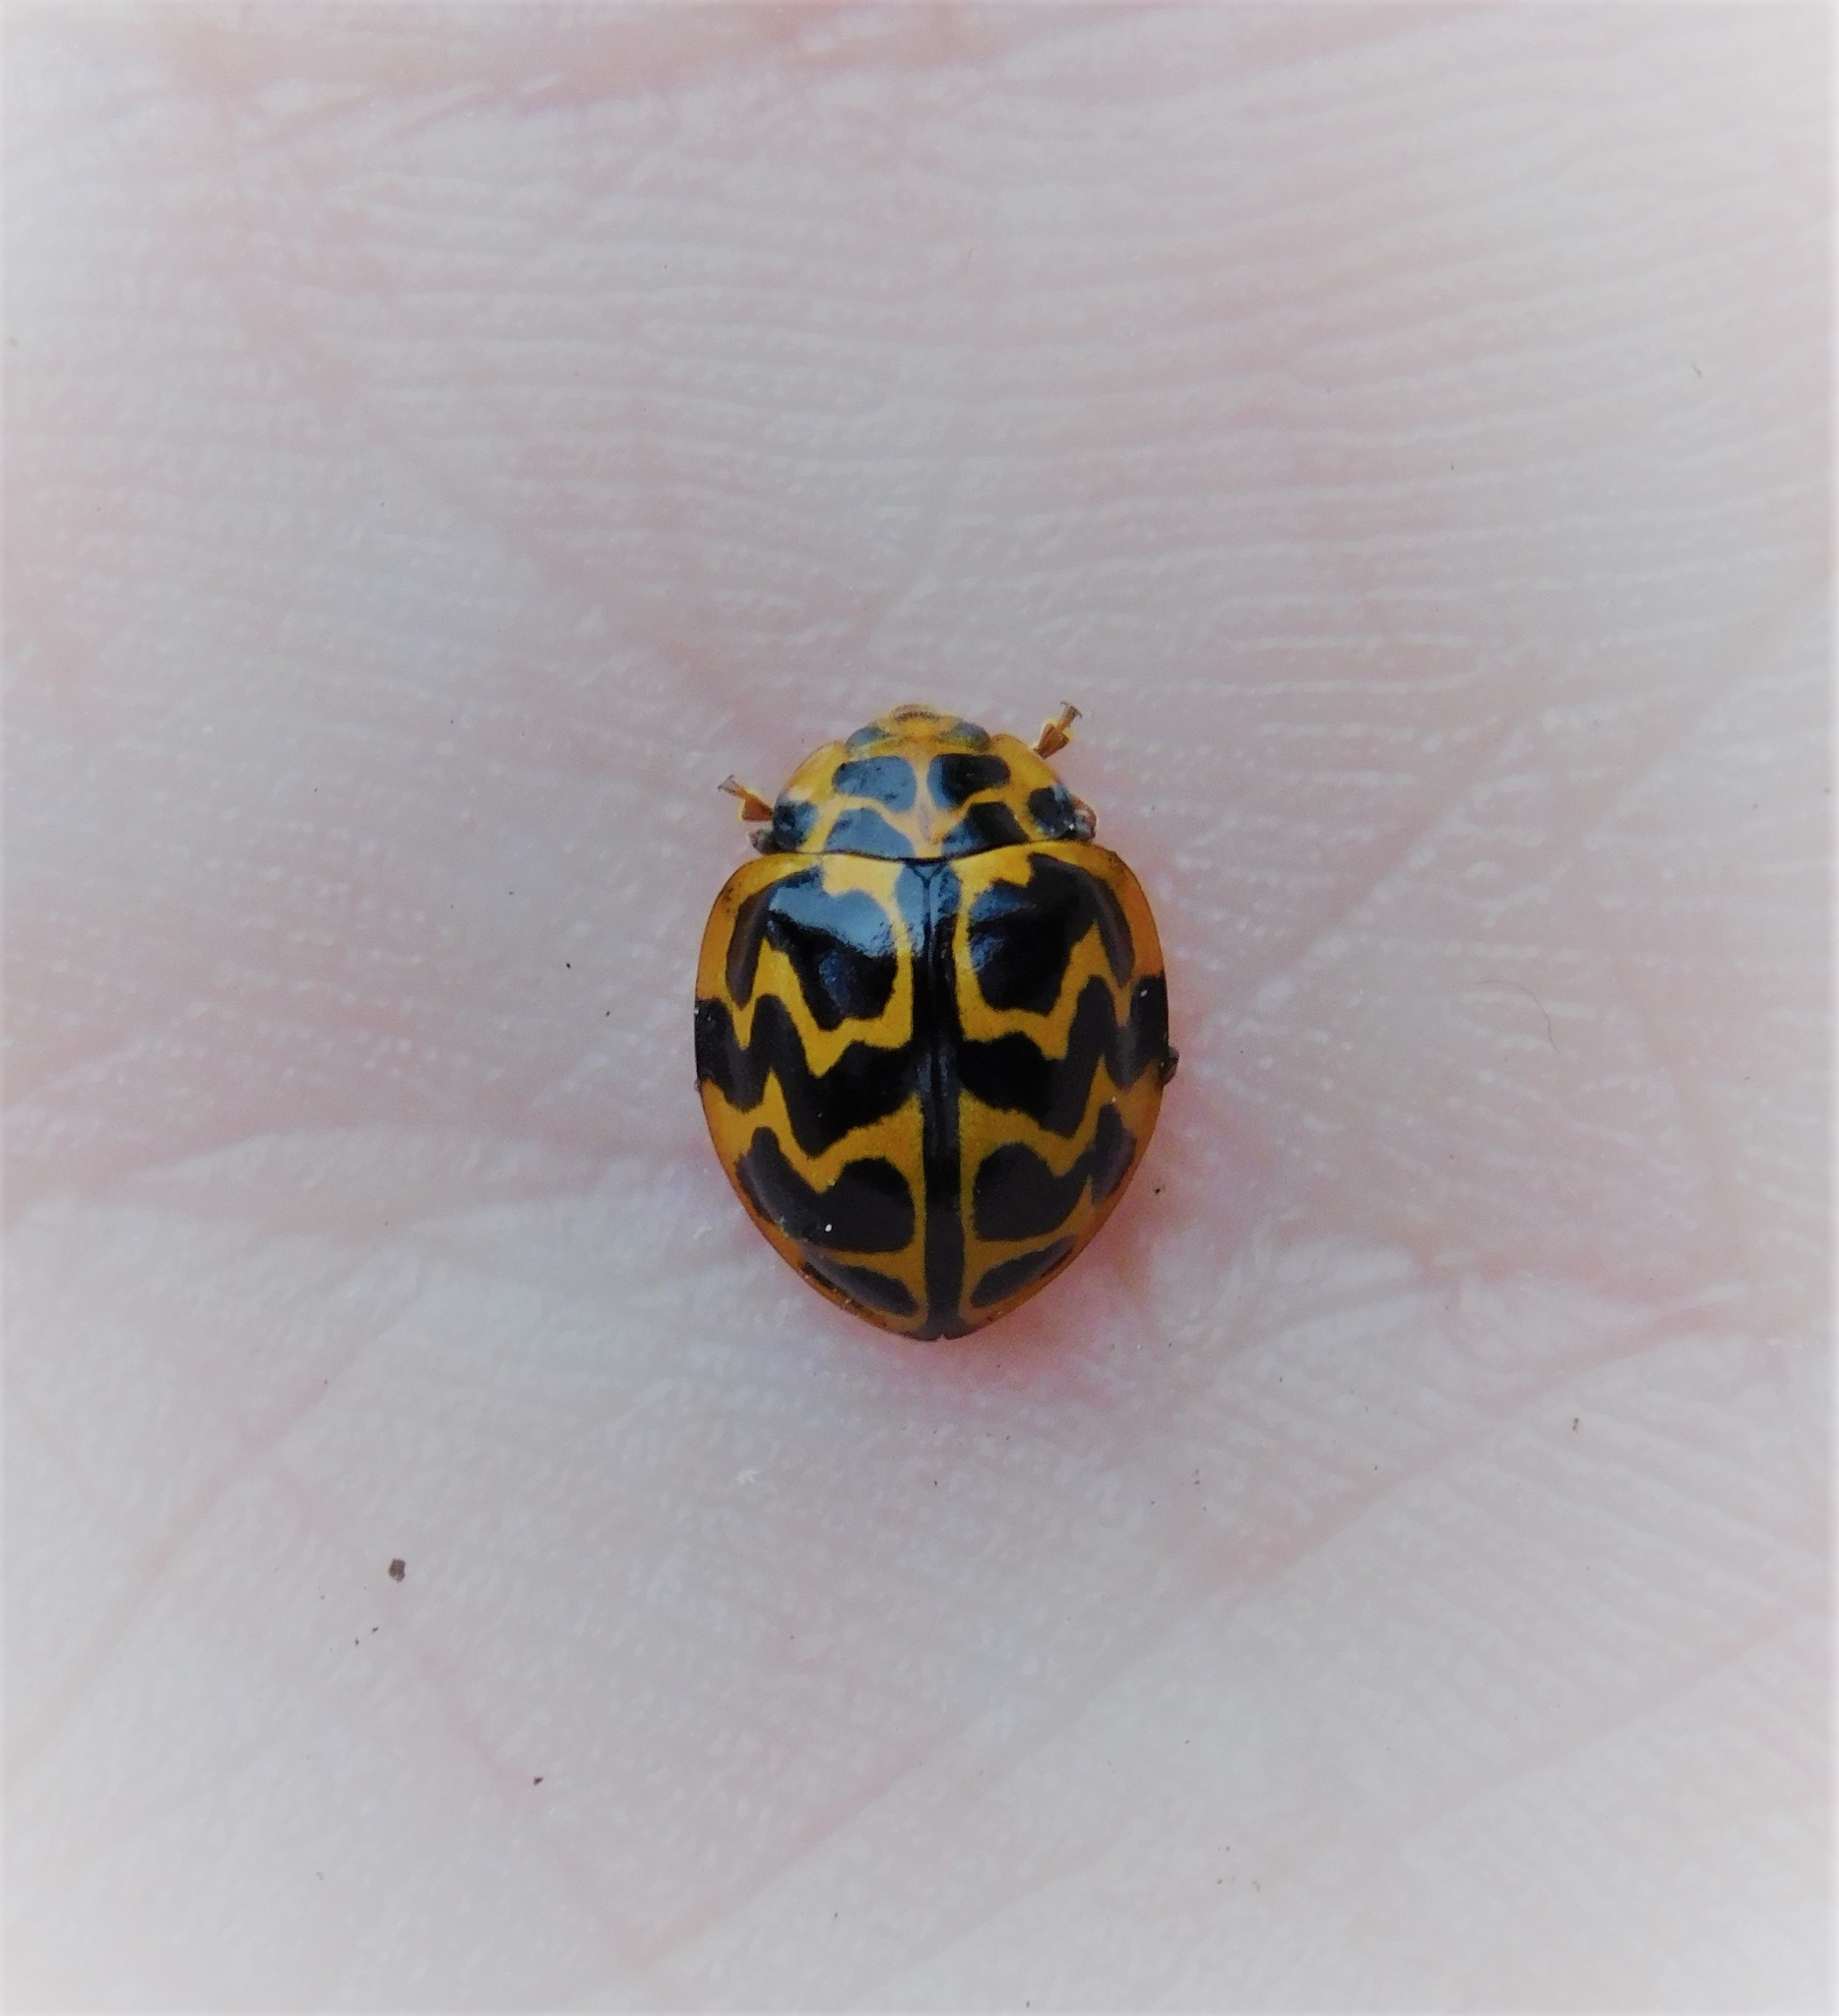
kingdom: Animalia
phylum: Arthropoda
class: Insecta
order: Coleoptera
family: Coccinellidae
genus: Cleobora
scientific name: Cleobora
